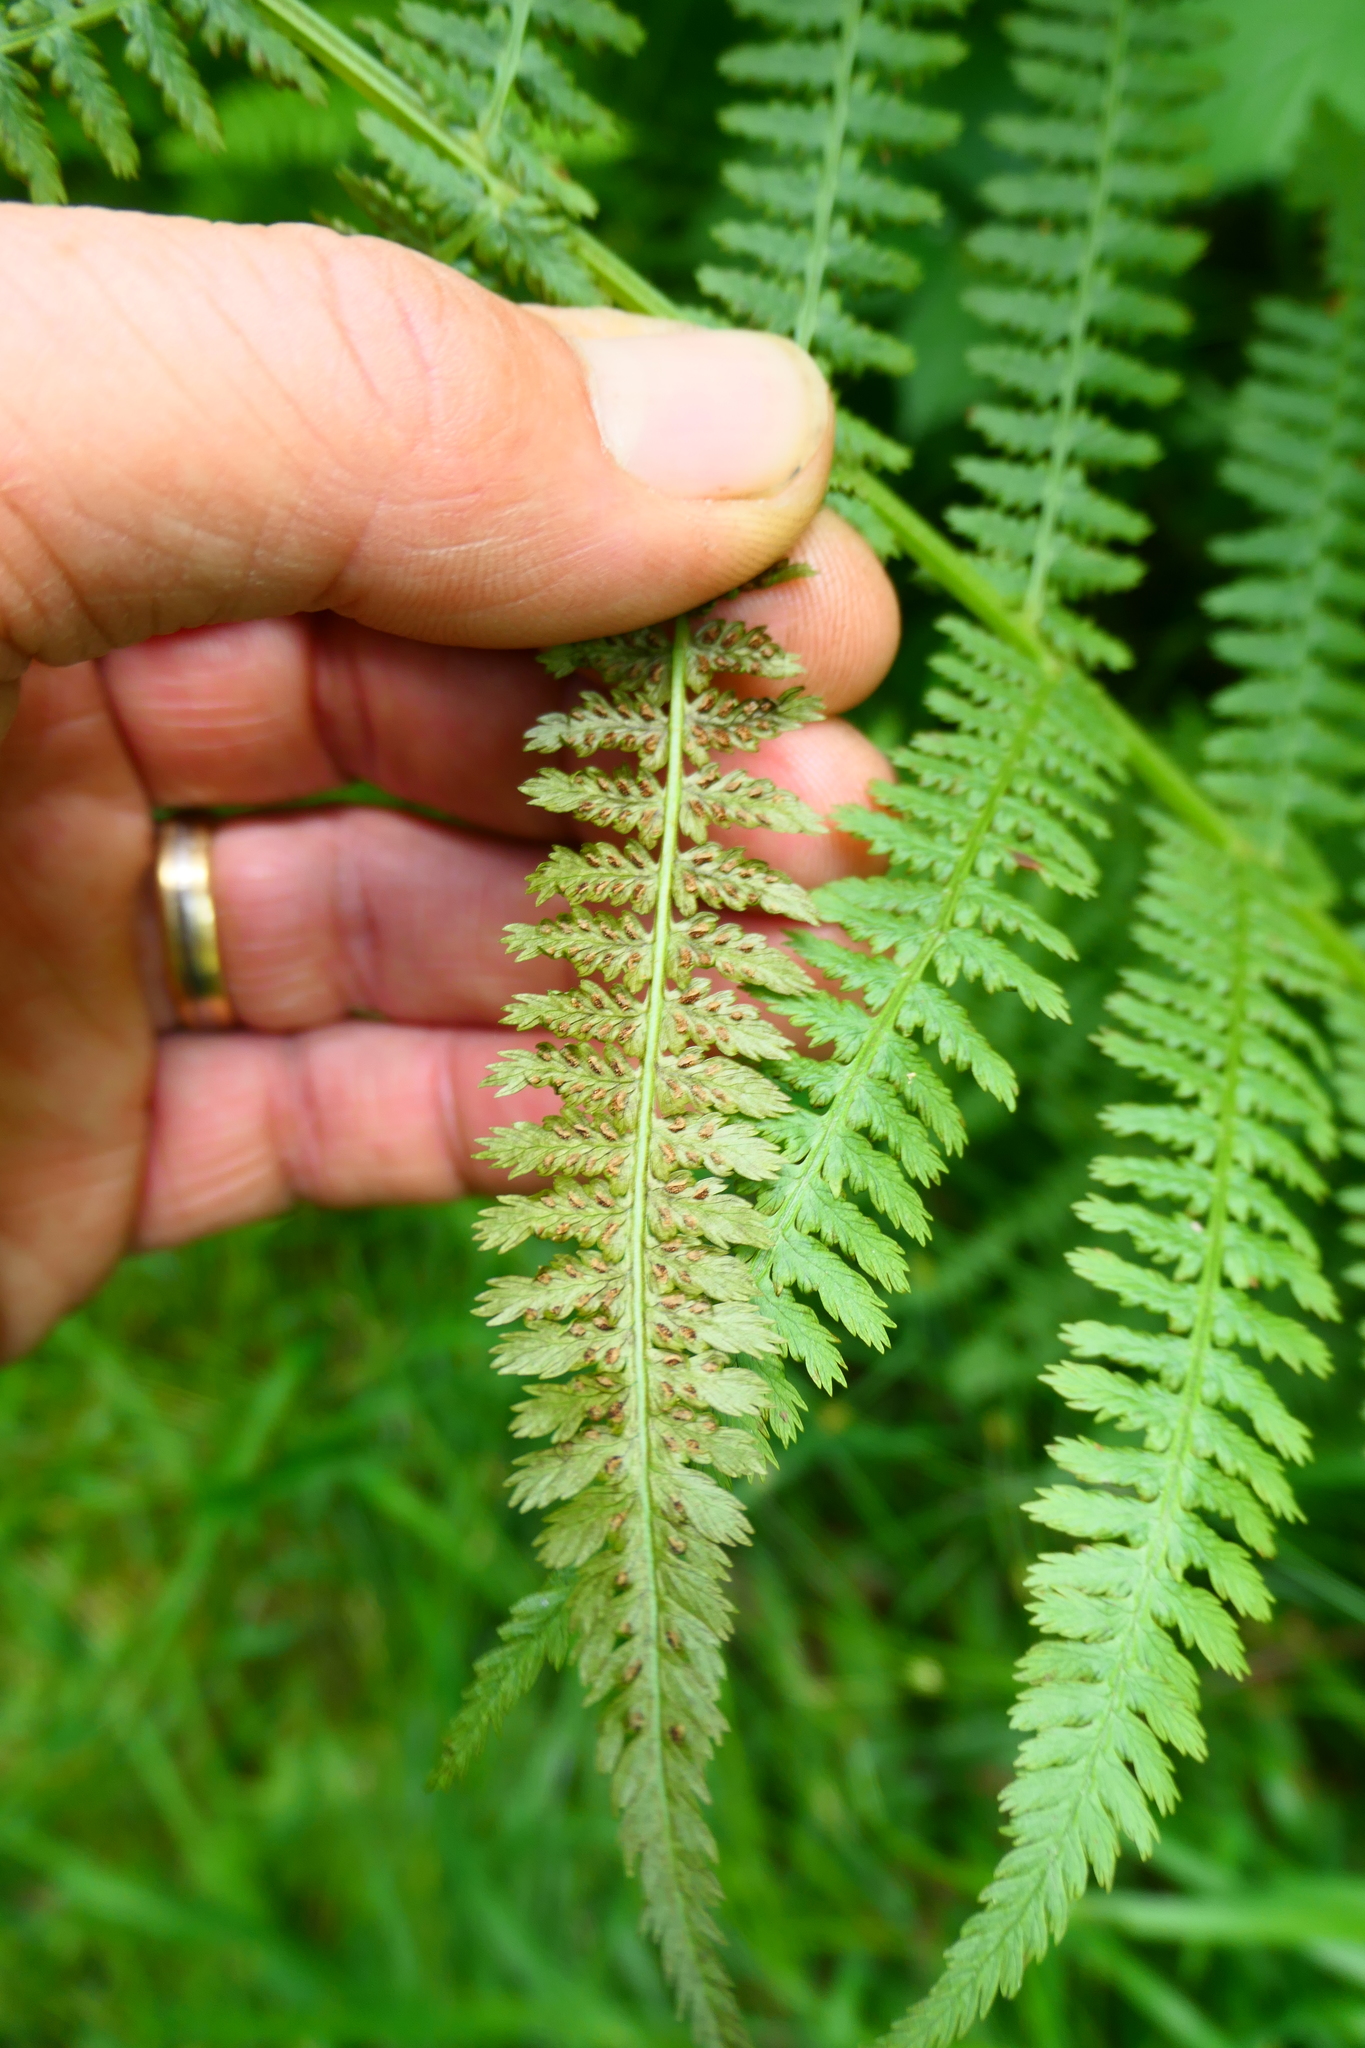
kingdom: Plantae
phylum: Tracheophyta
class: Polypodiopsida
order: Polypodiales
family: Athyriaceae
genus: Athyrium
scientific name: Athyrium filix-femina
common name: Lady fern
